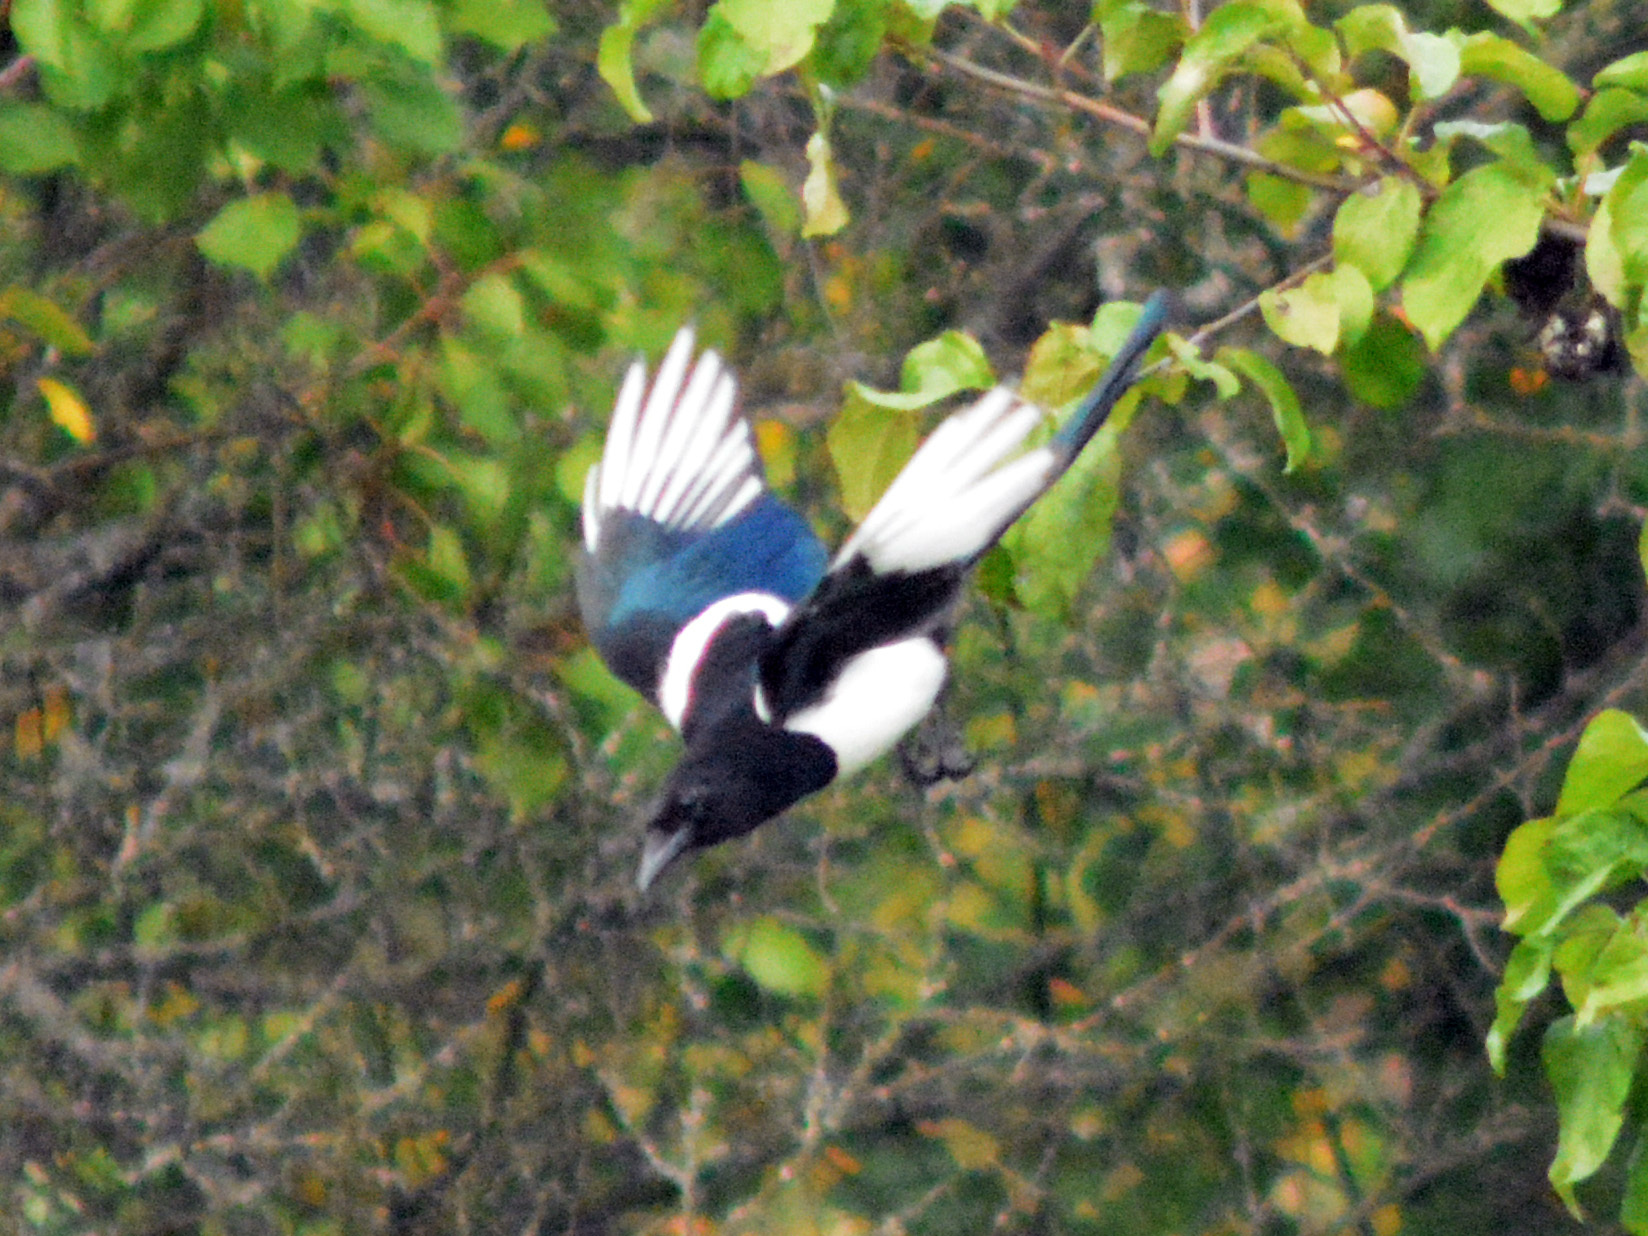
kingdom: Animalia
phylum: Chordata
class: Aves
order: Passeriformes
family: Corvidae
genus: Pica
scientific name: Pica pica
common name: Eurasian magpie
